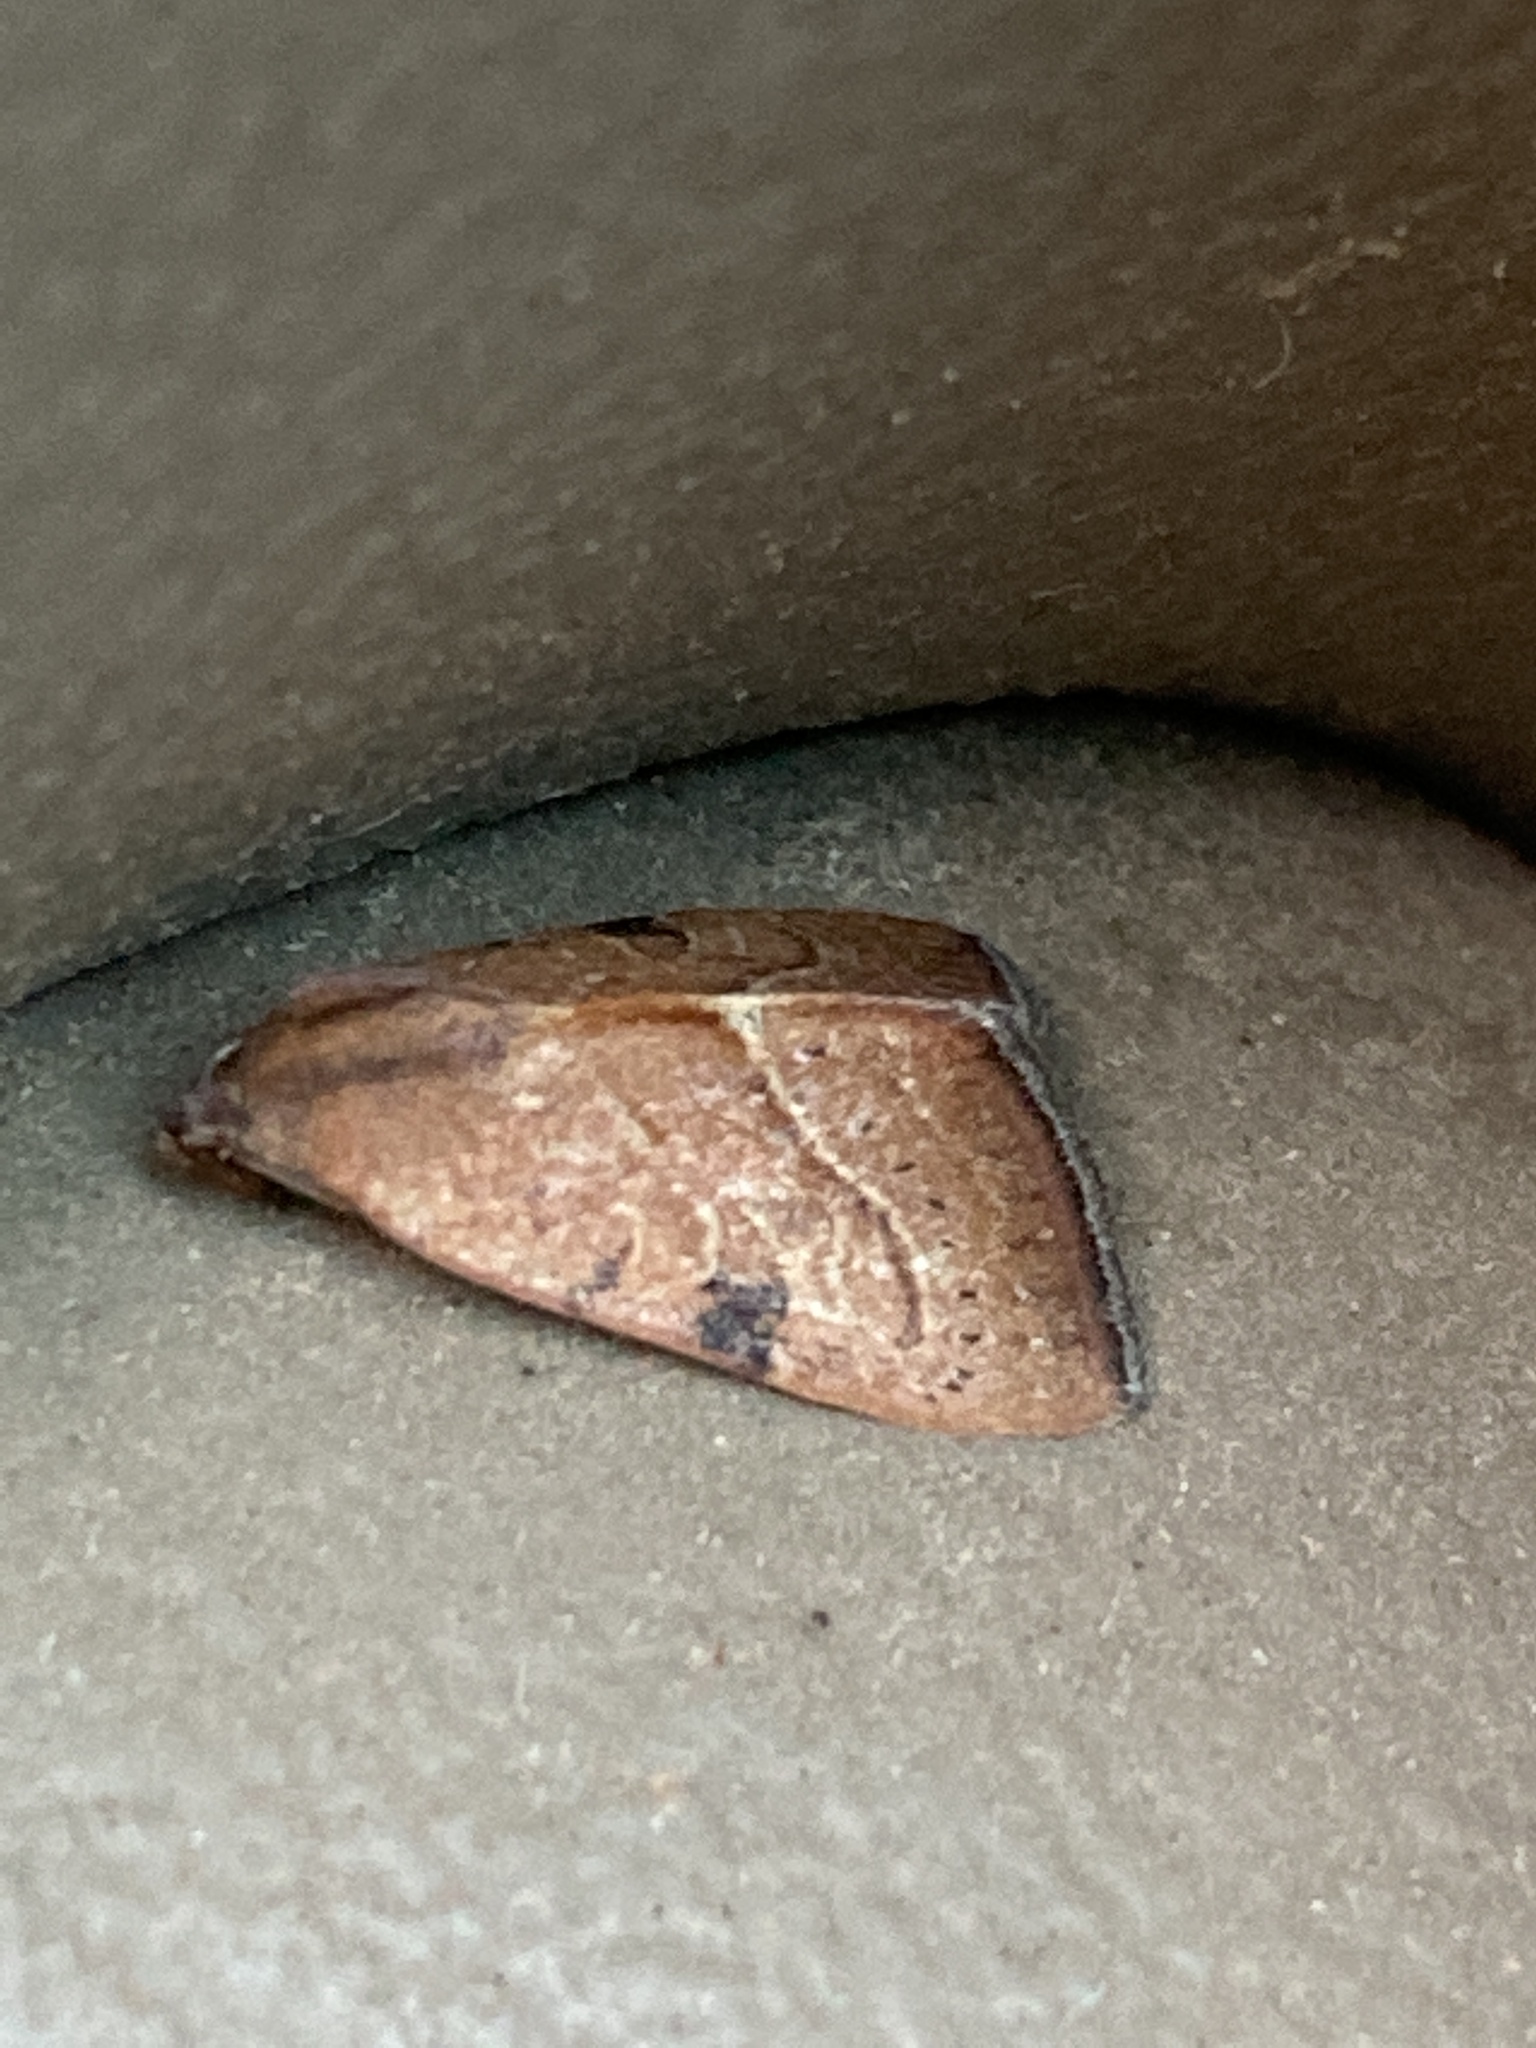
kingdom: Animalia
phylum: Arthropoda
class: Insecta
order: Lepidoptera
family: Noctuidae
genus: Galgula
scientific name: Galgula partita
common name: Wedgeling
